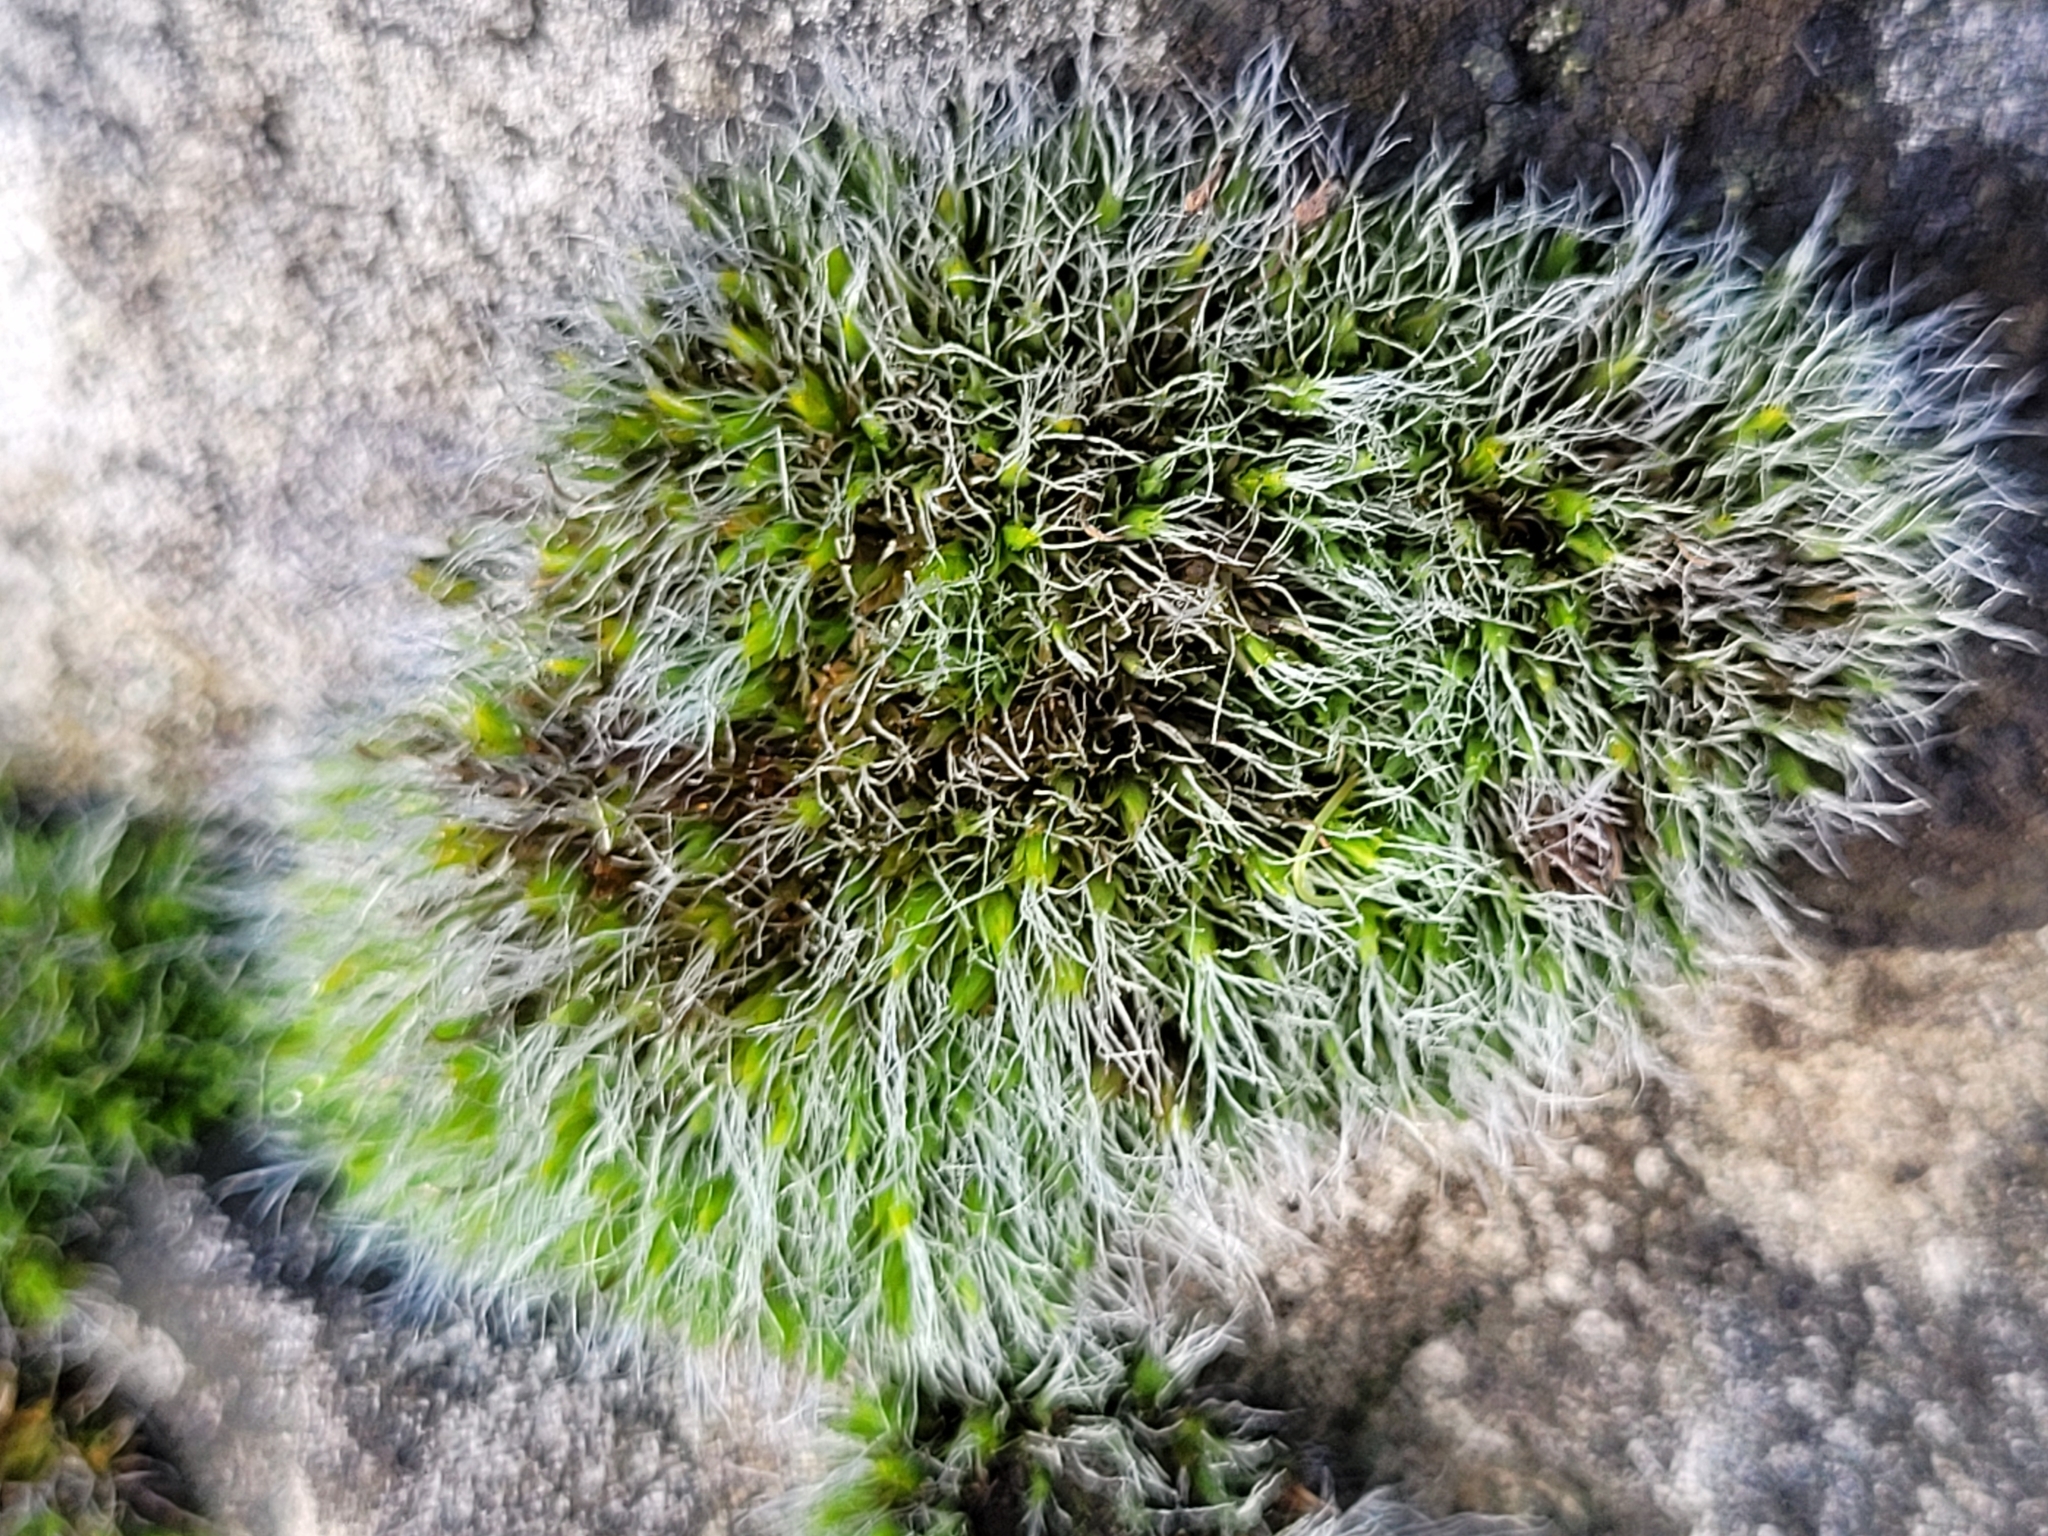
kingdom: Plantae
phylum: Bryophyta
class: Bryopsida
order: Grimmiales
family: Grimmiaceae
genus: Grimmia
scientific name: Grimmia pulvinata
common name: Grey-cushioned grimmia
